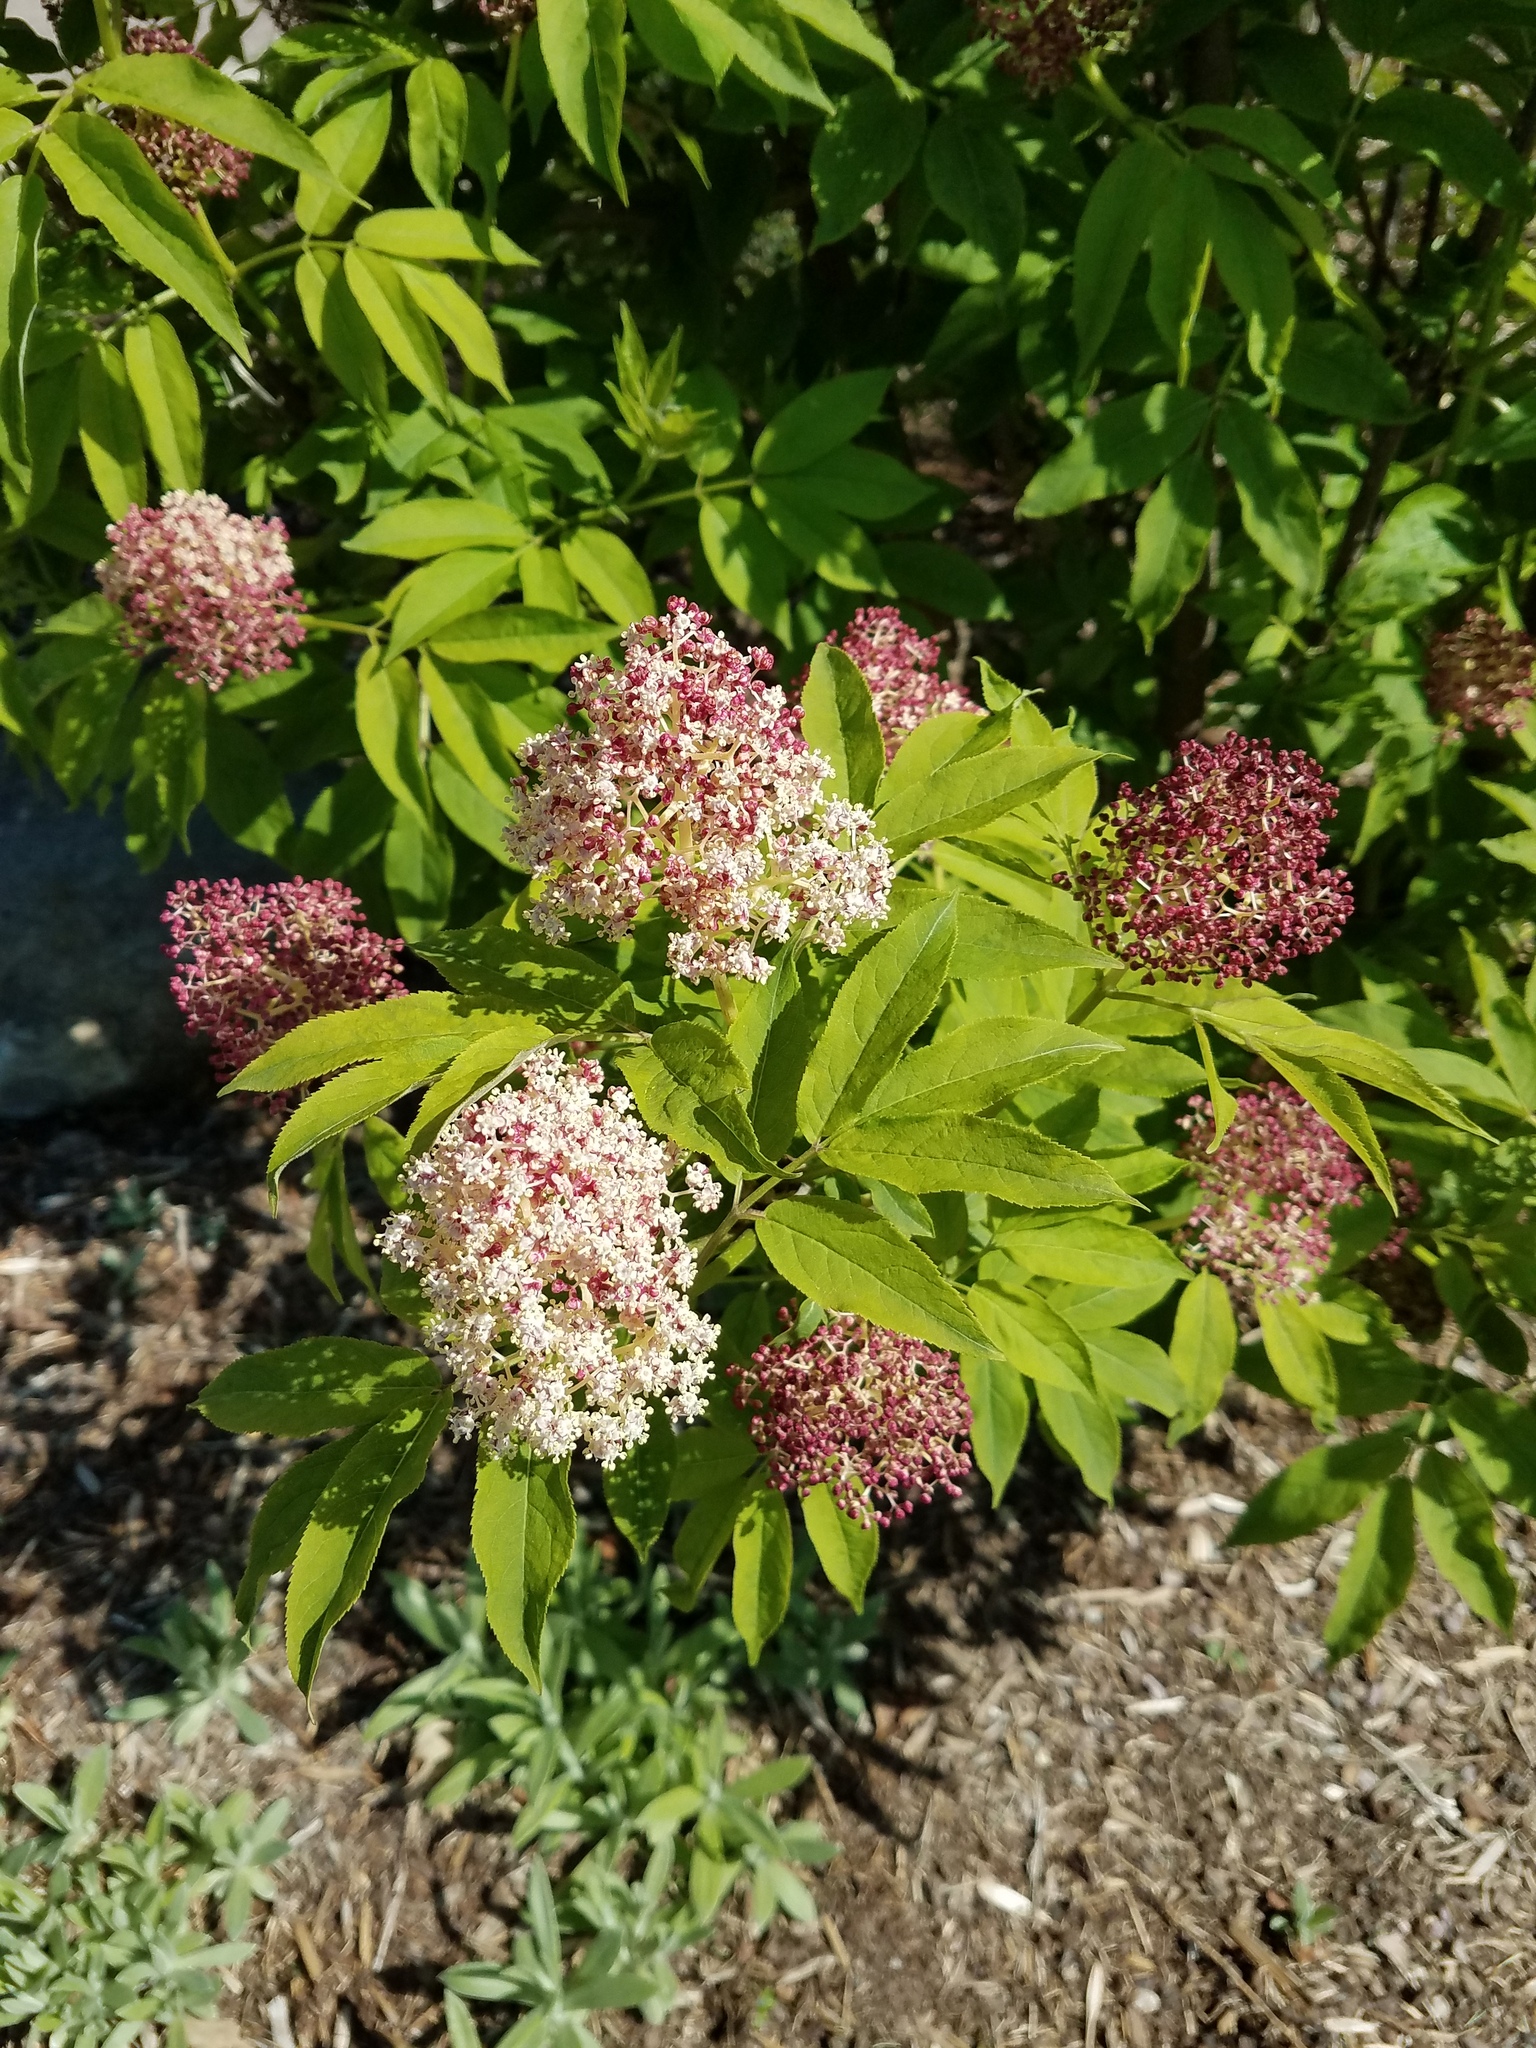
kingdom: Plantae
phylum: Tracheophyta
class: Magnoliopsida
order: Dipsacales
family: Viburnaceae
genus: Sambucus
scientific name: Sambucus racemosa
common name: Red-berried elder
